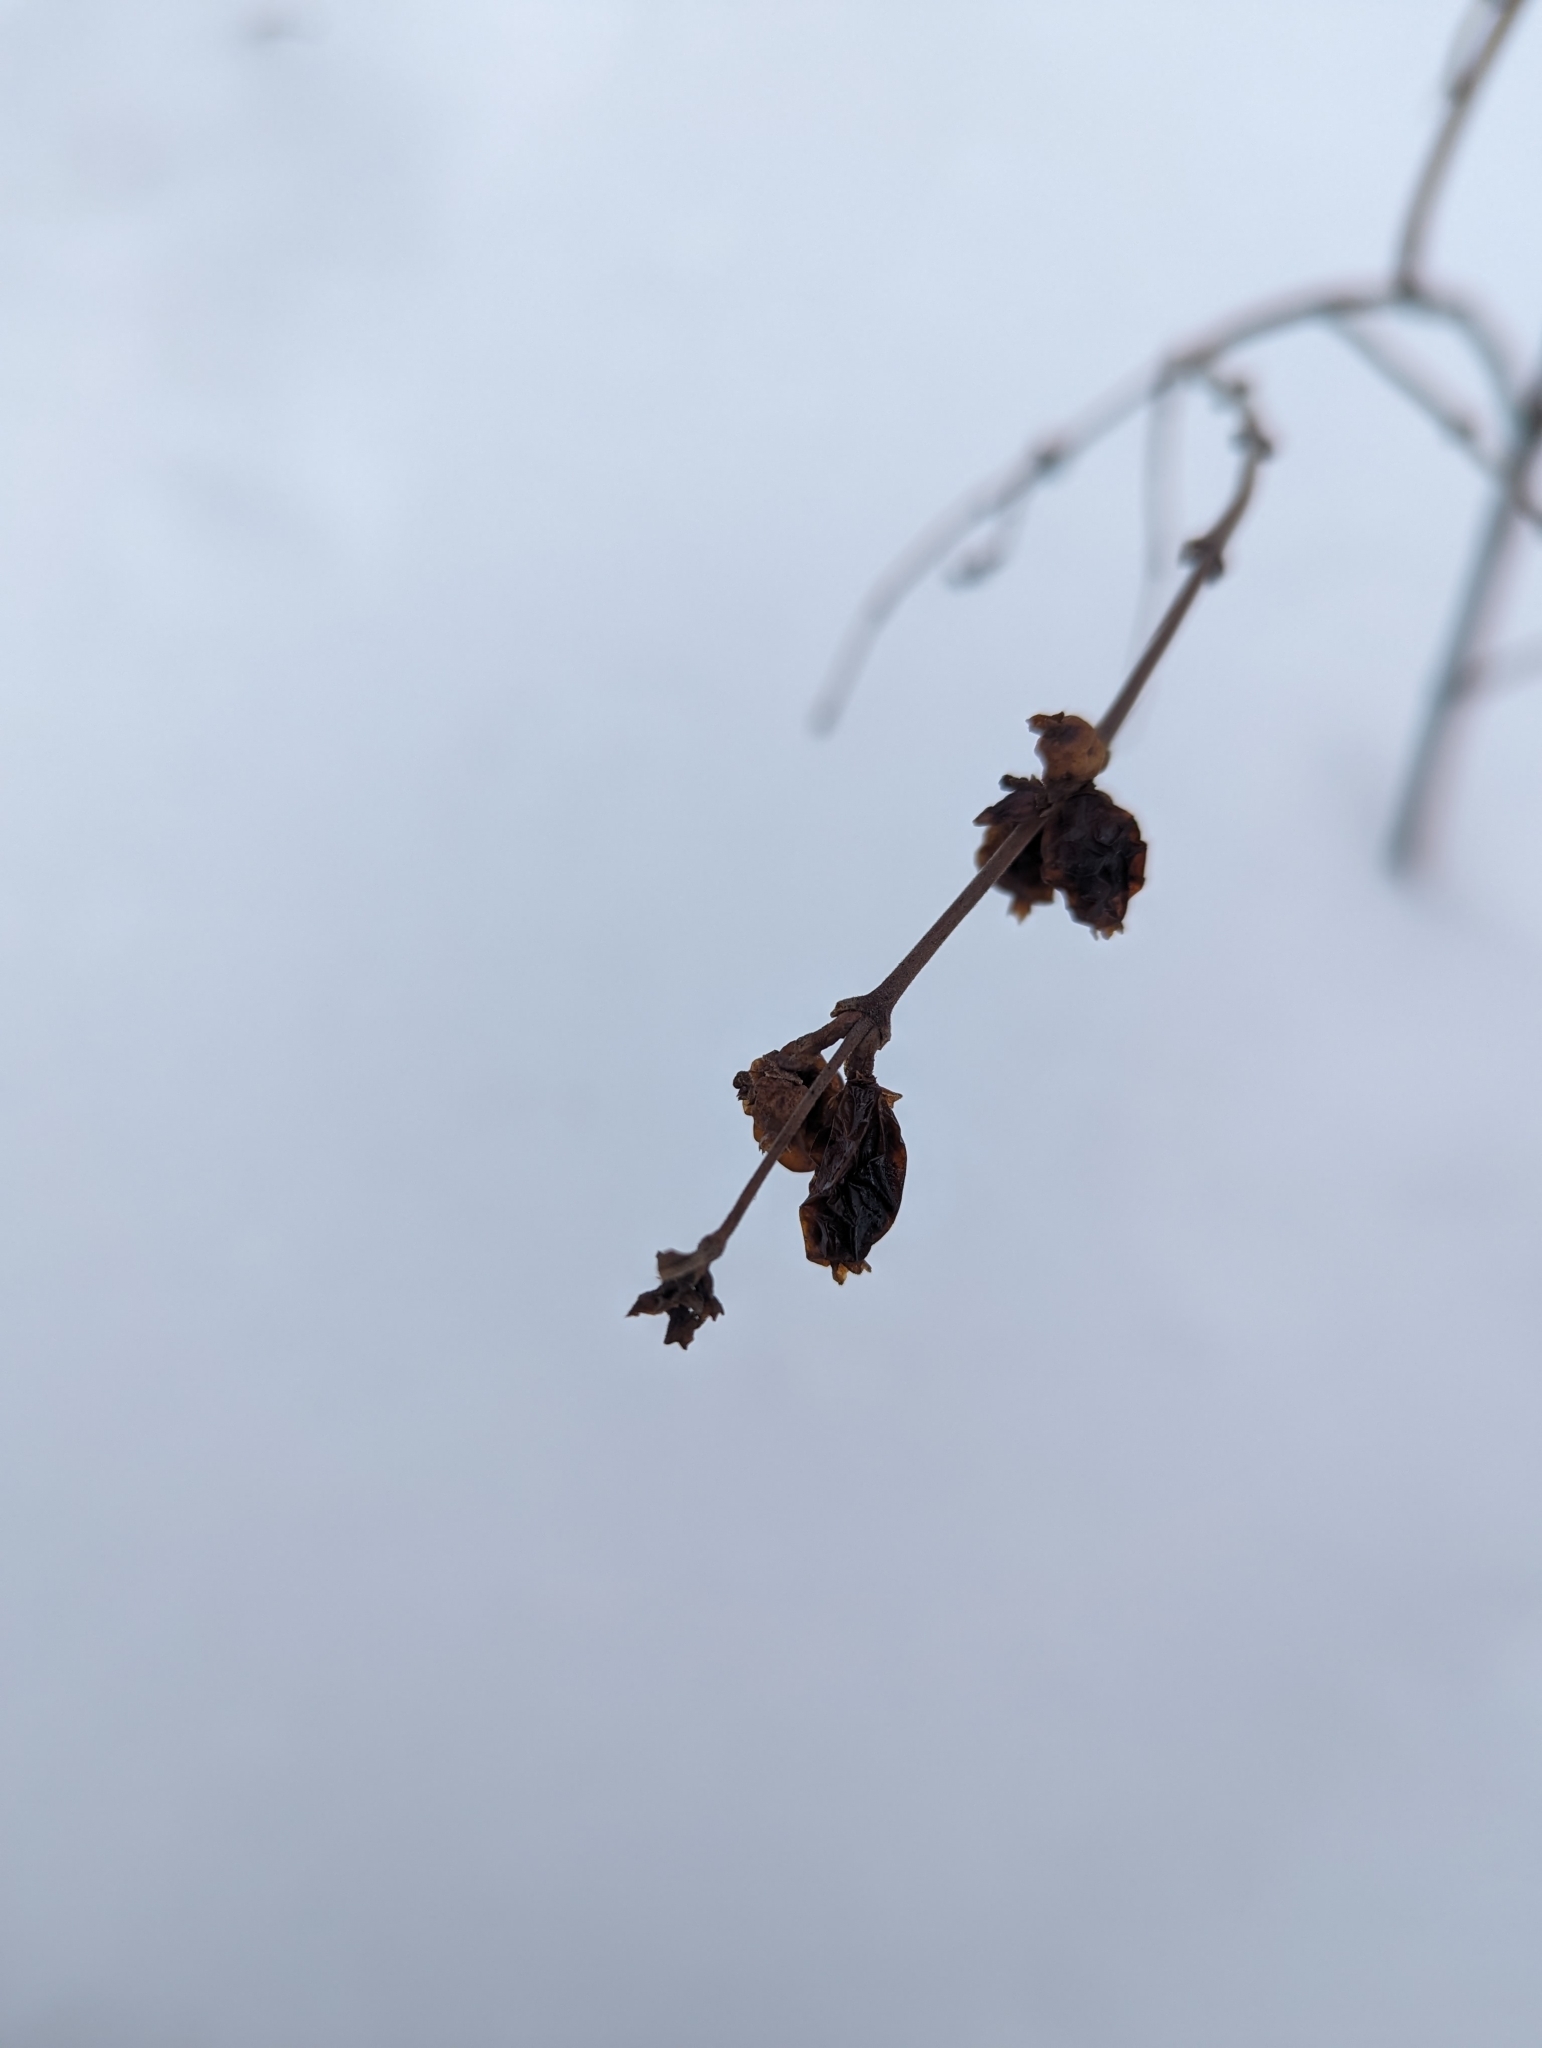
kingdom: Plantae
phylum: Tracheophyta
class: Magnoliopsida
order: Dipsacales
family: Caprifoliaceae
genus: Symphoricarpos
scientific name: Symphoricarpos occidentalis
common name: Wolfberry
